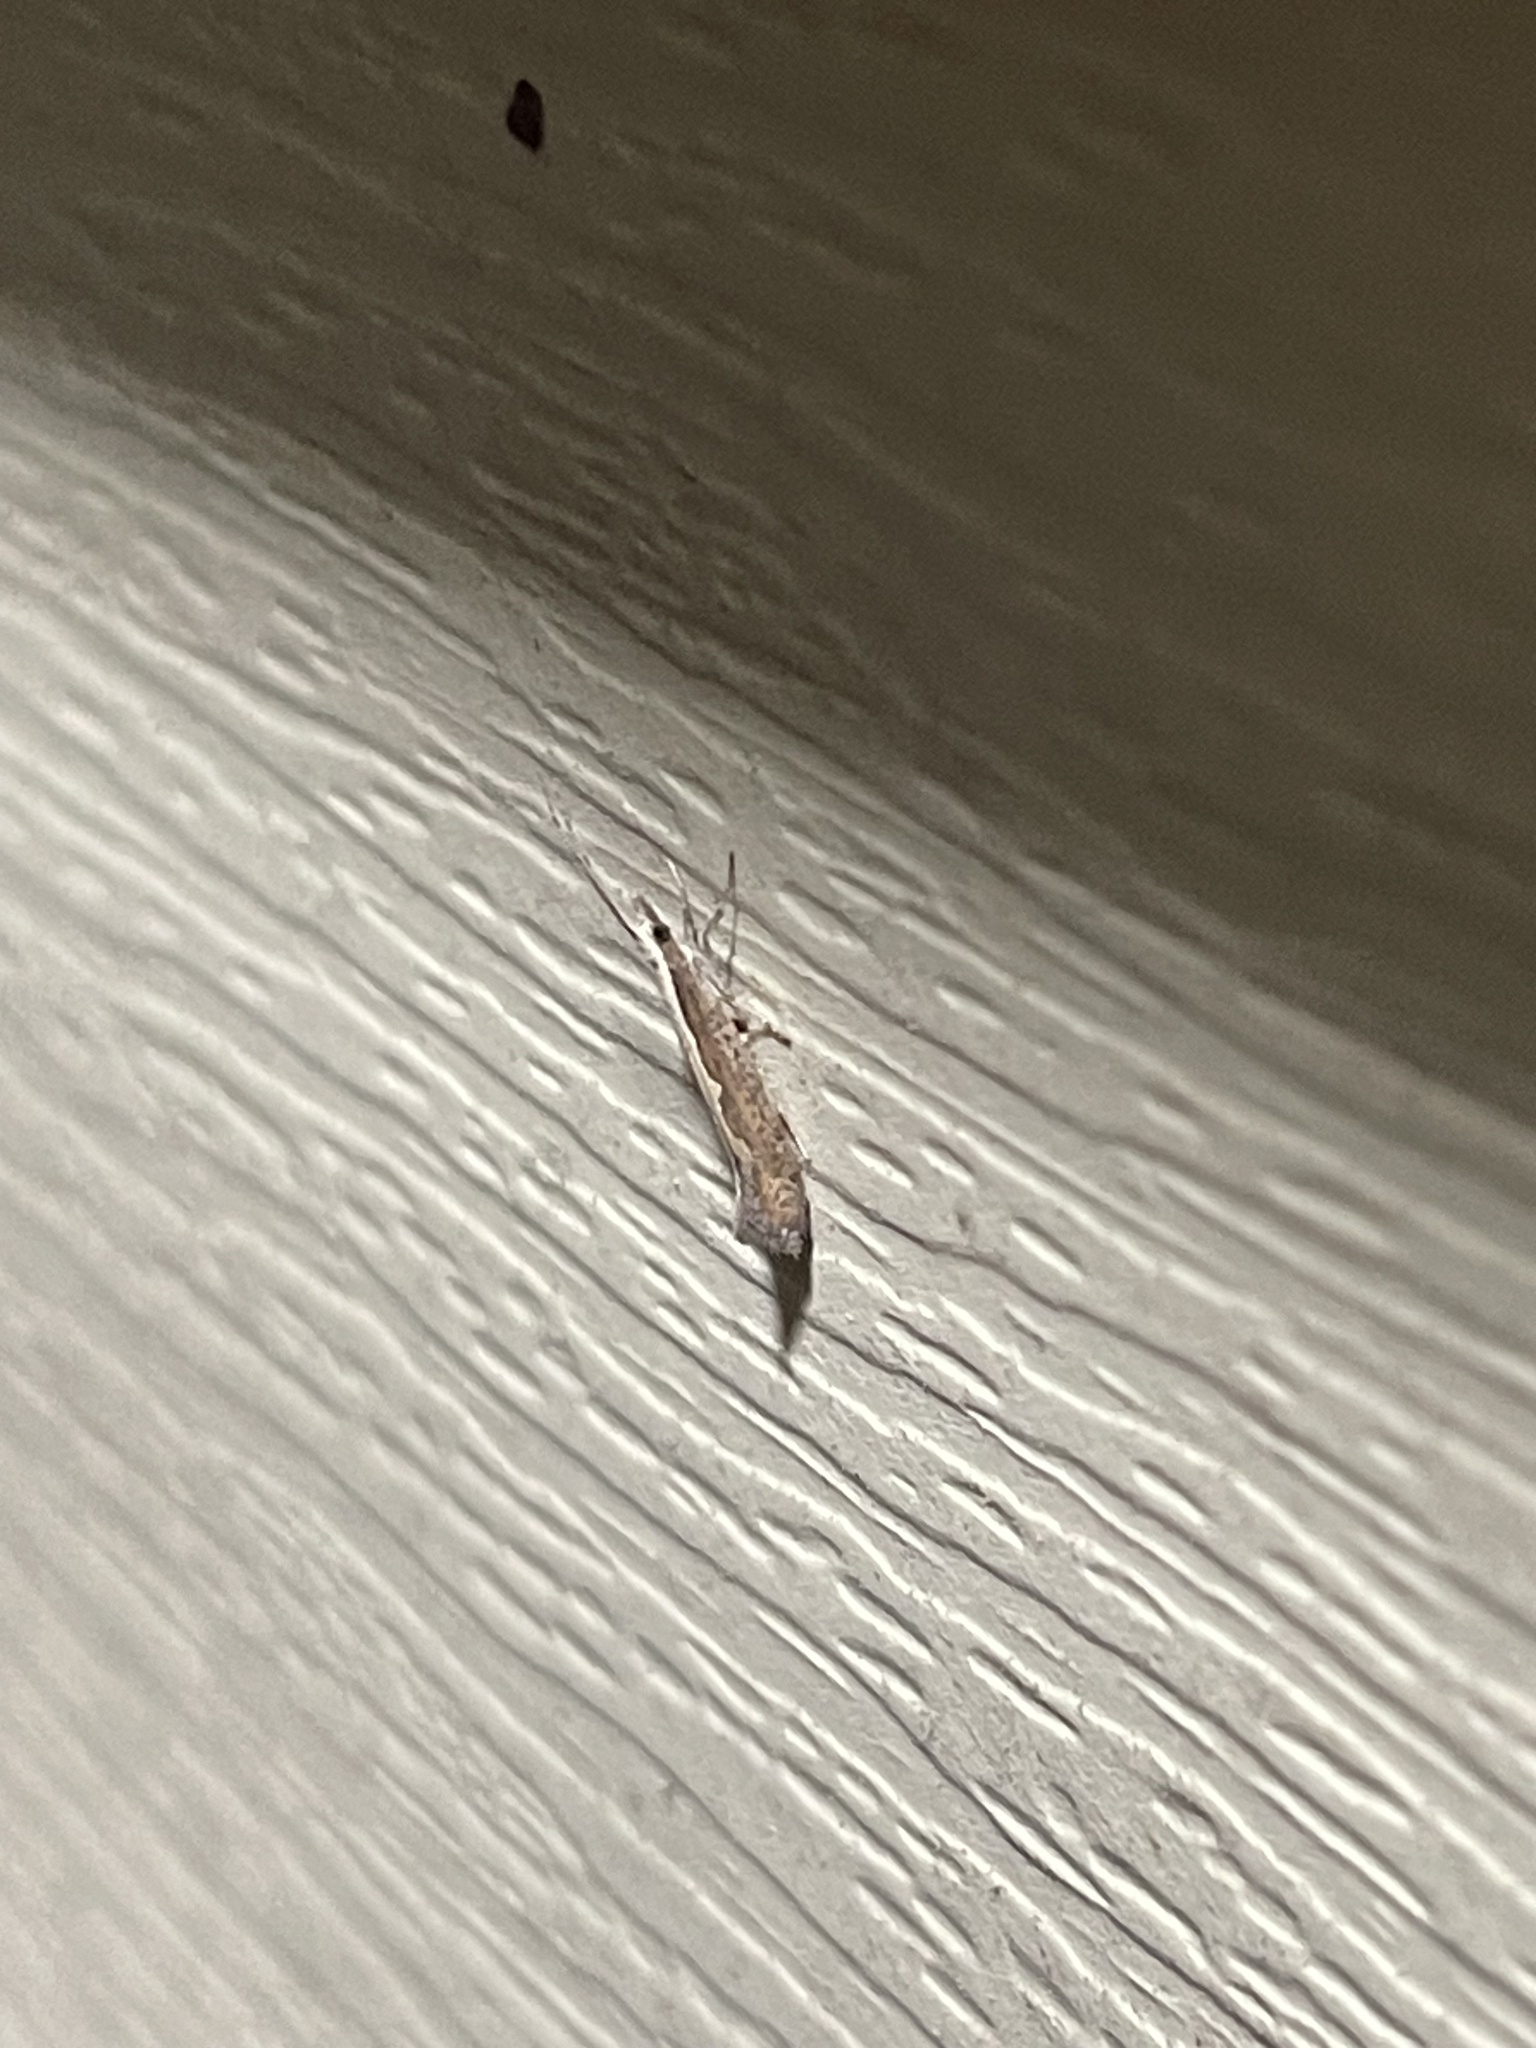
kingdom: Animalia
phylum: Arthropoda
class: Insecta
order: Lepidoptera
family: Plutellidae
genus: Plutella
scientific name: Plutella xylostella
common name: Diamond-back moth
